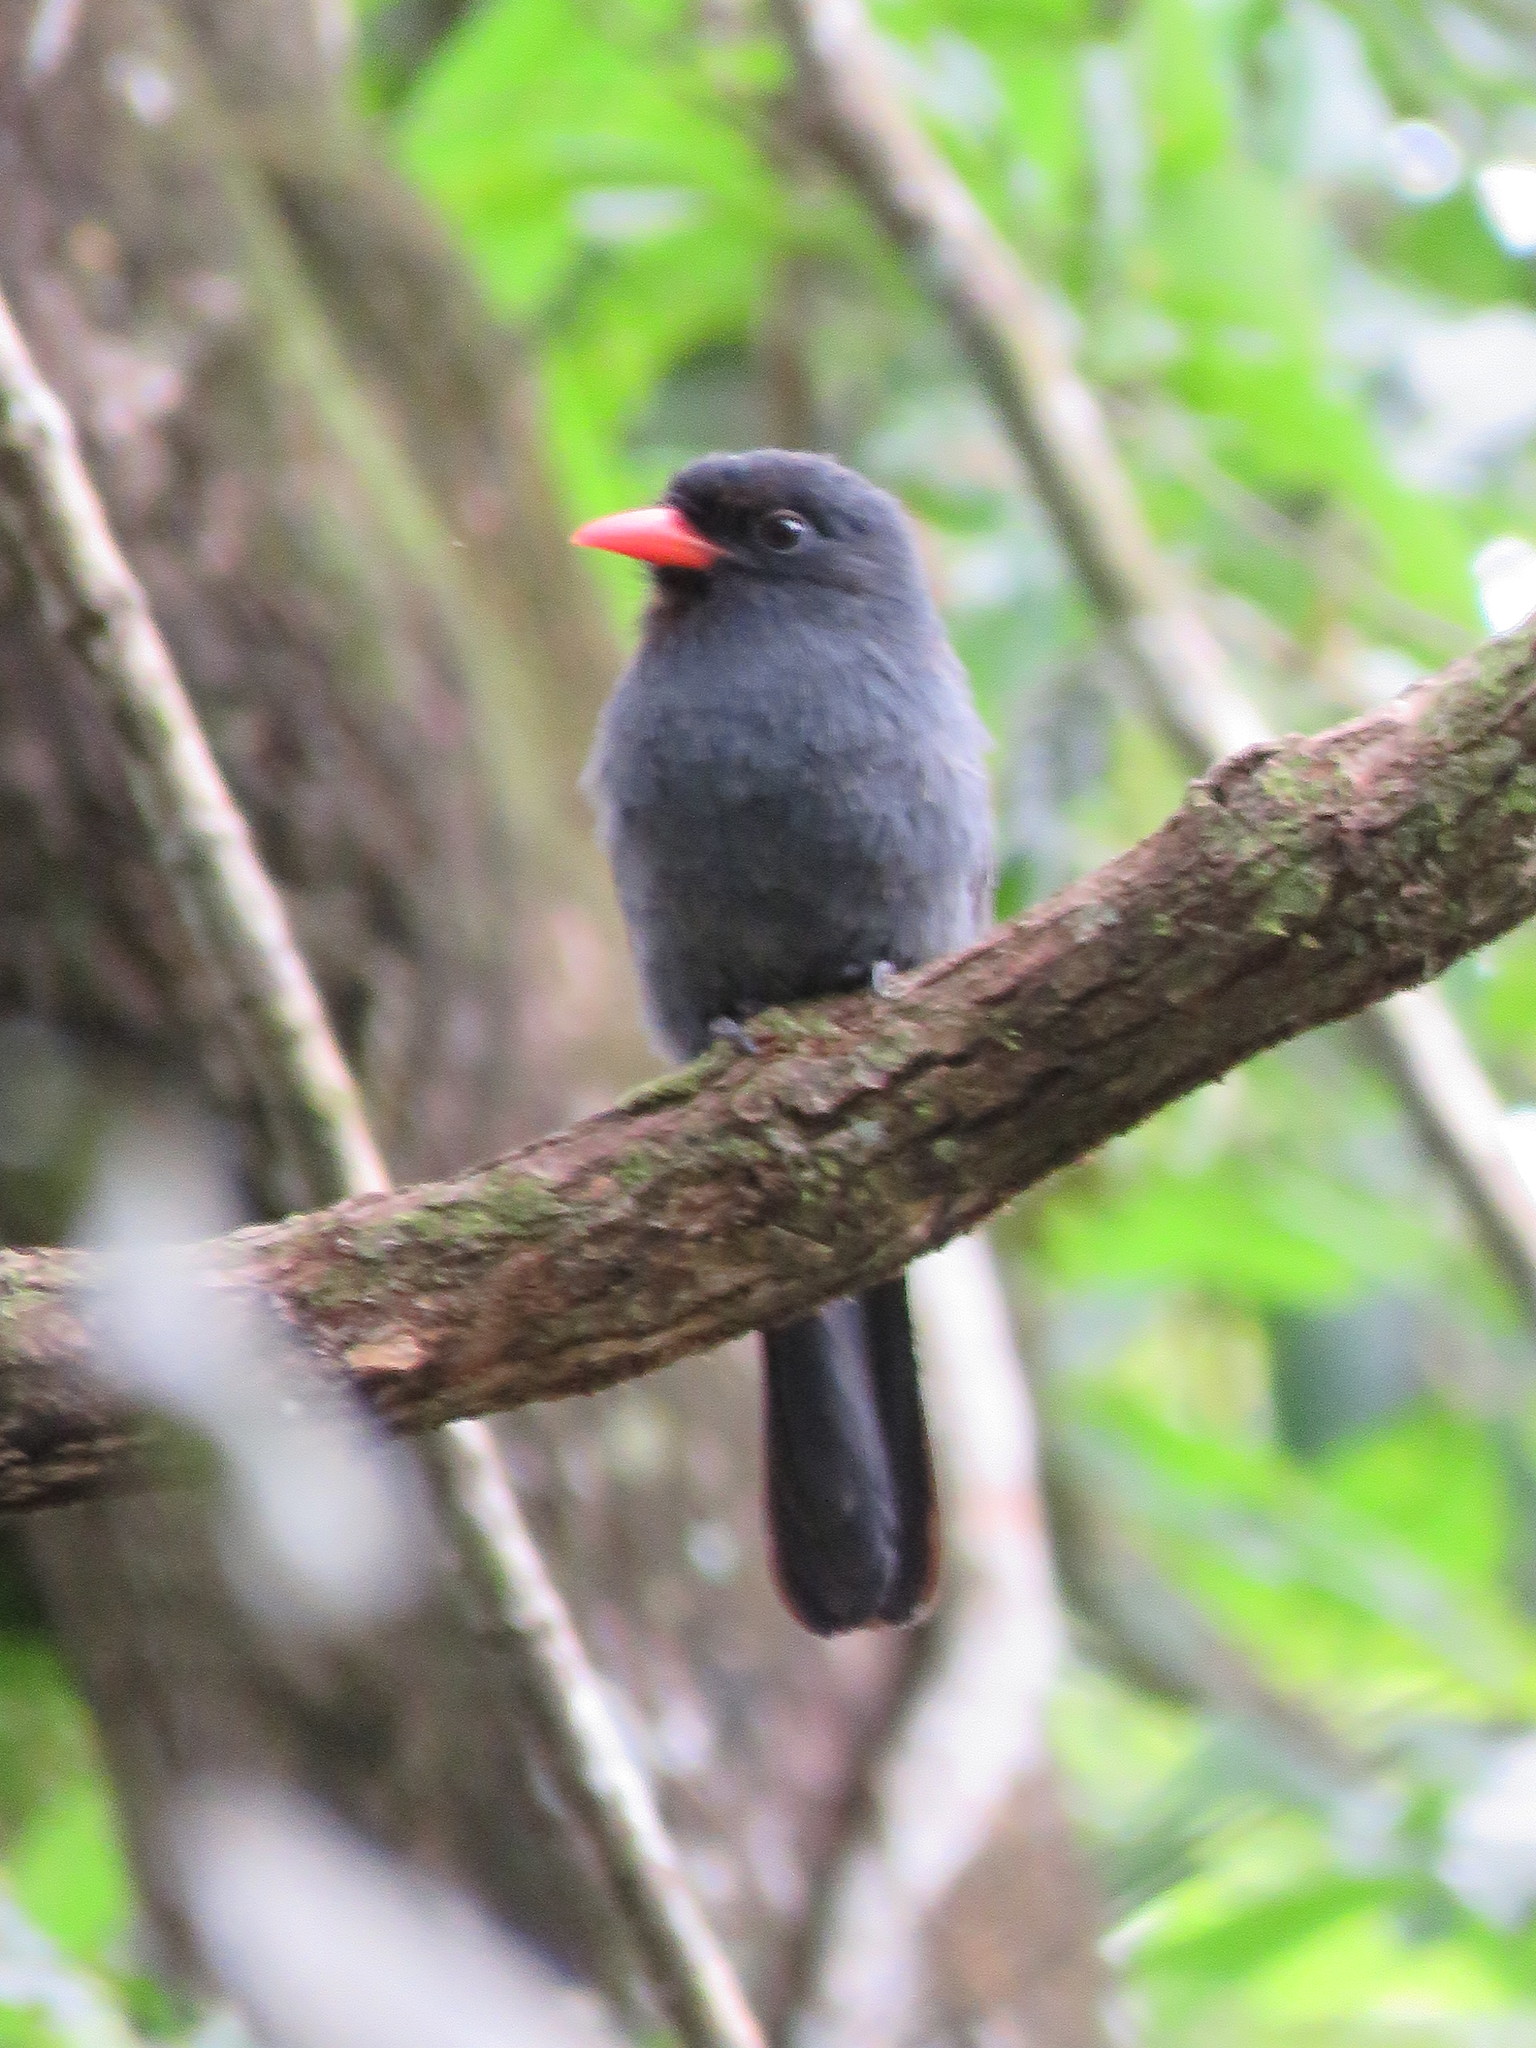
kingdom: Animalia
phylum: Chordata
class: Aves
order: Piciformes
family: Bucconidae
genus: Monasa
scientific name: Monasa nigrifrons
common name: Black-fronted nunbird
